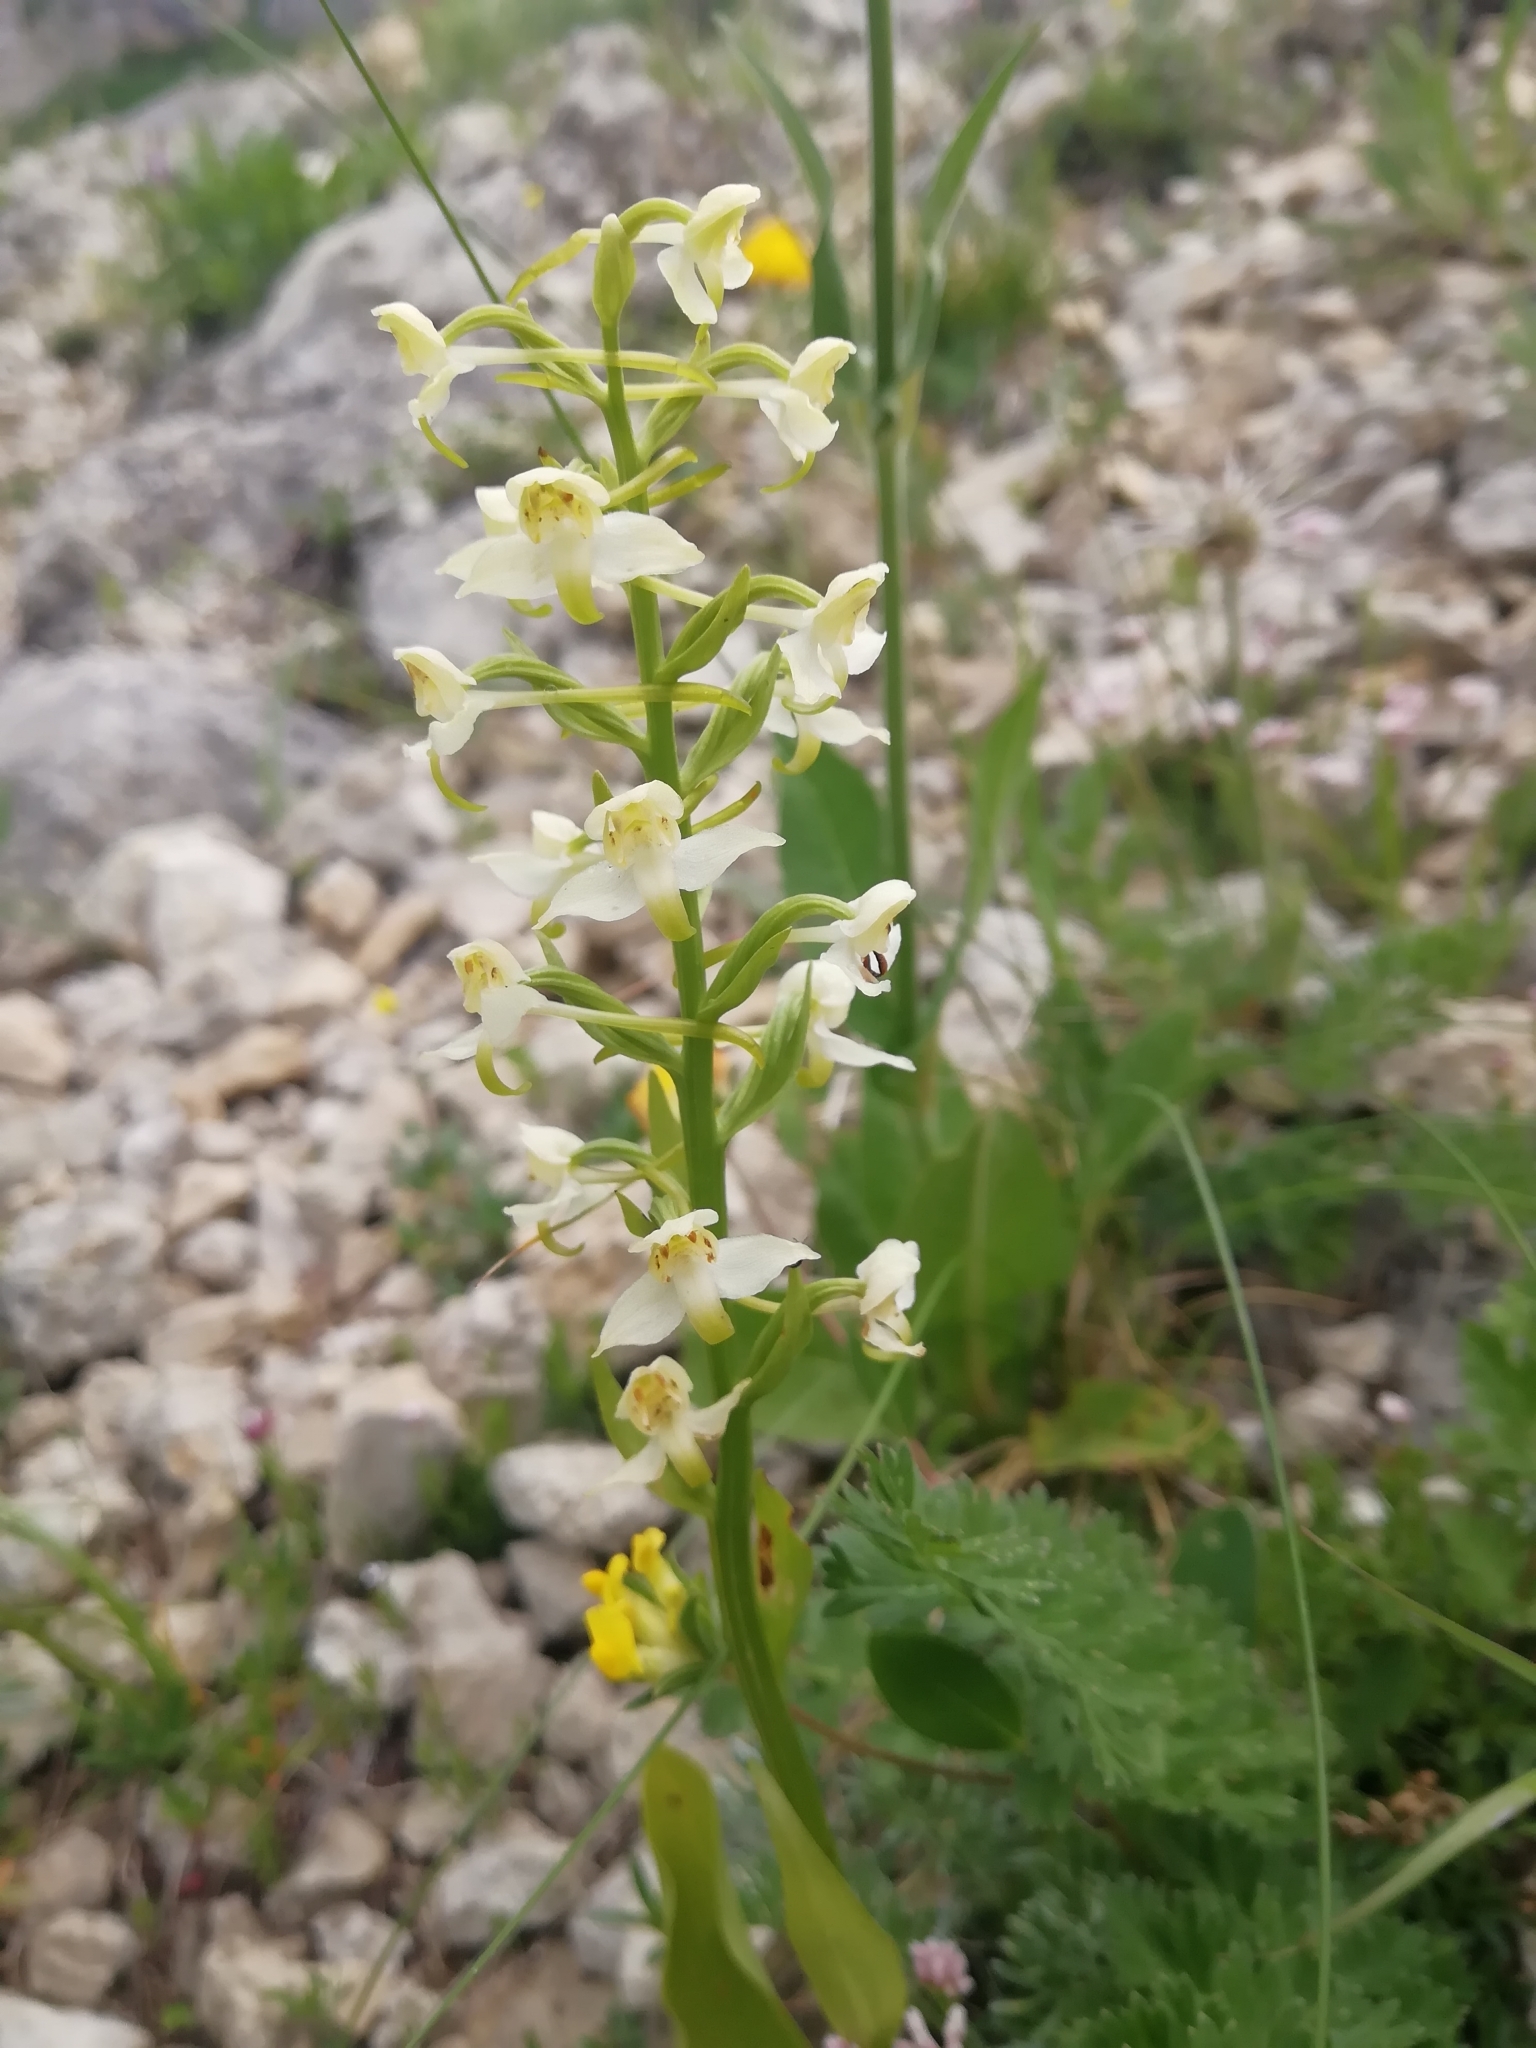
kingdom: Plantae
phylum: Tracheophyta
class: Liliopsida
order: Asparagales
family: Orchidaceae
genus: Platanthera
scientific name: Platanthera chlorantha
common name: Greater butterfly-orchid
